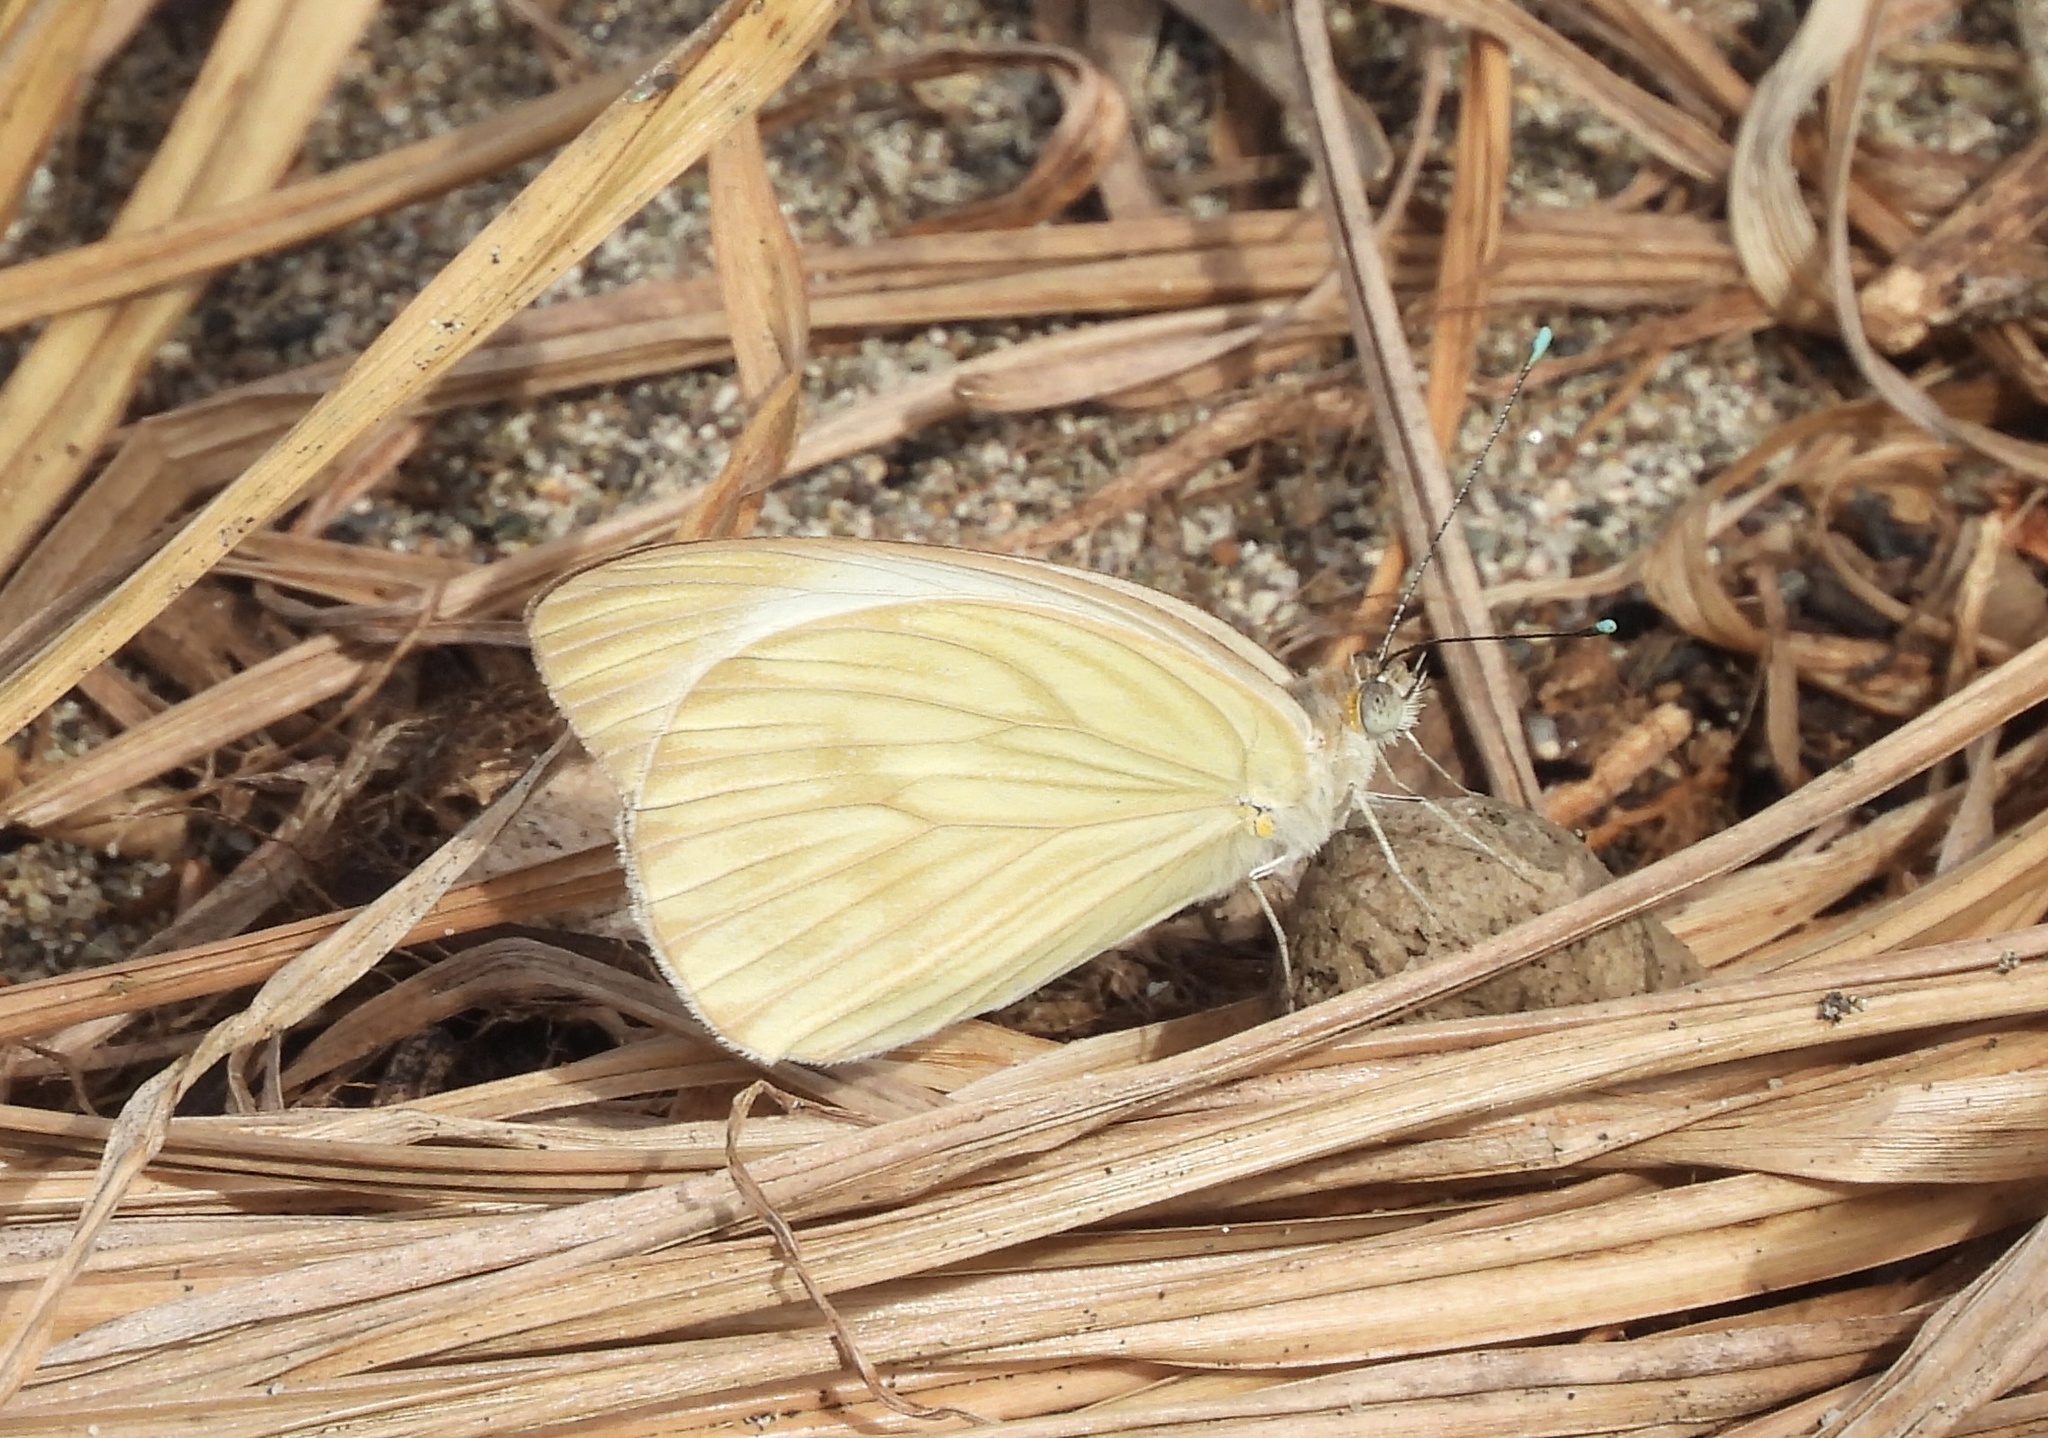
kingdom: Animalia
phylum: Arthropoda
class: Insecta
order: Lepidoptera
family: Pieridae
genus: Ascia
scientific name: Ascia monuste
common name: Great southern white
